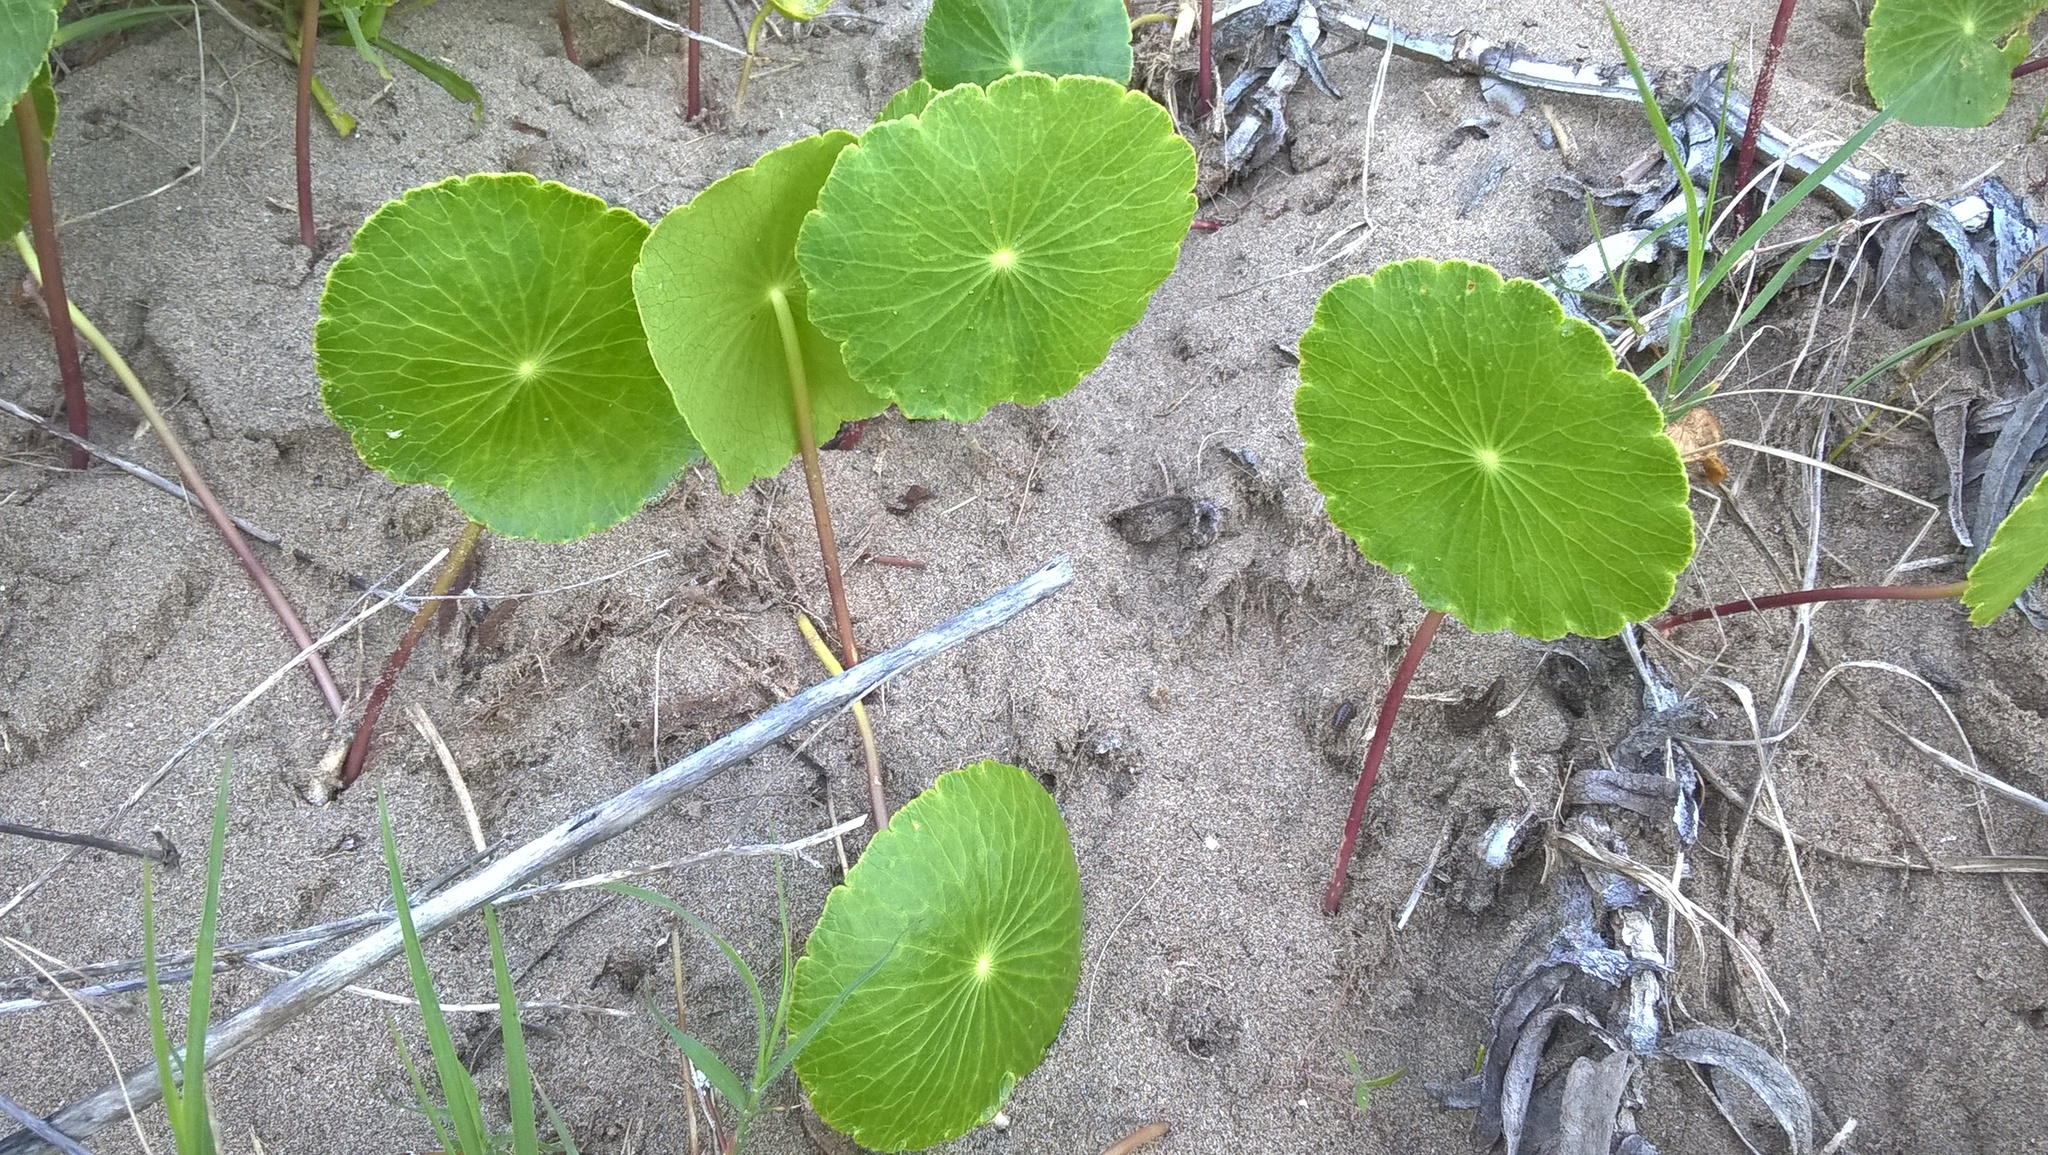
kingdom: Plantae
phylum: Tracheophyta
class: Magnoliopsida
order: Apiales
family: Araliaceae
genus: Hydrocotyle
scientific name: Hydrocotyle bonariensis
